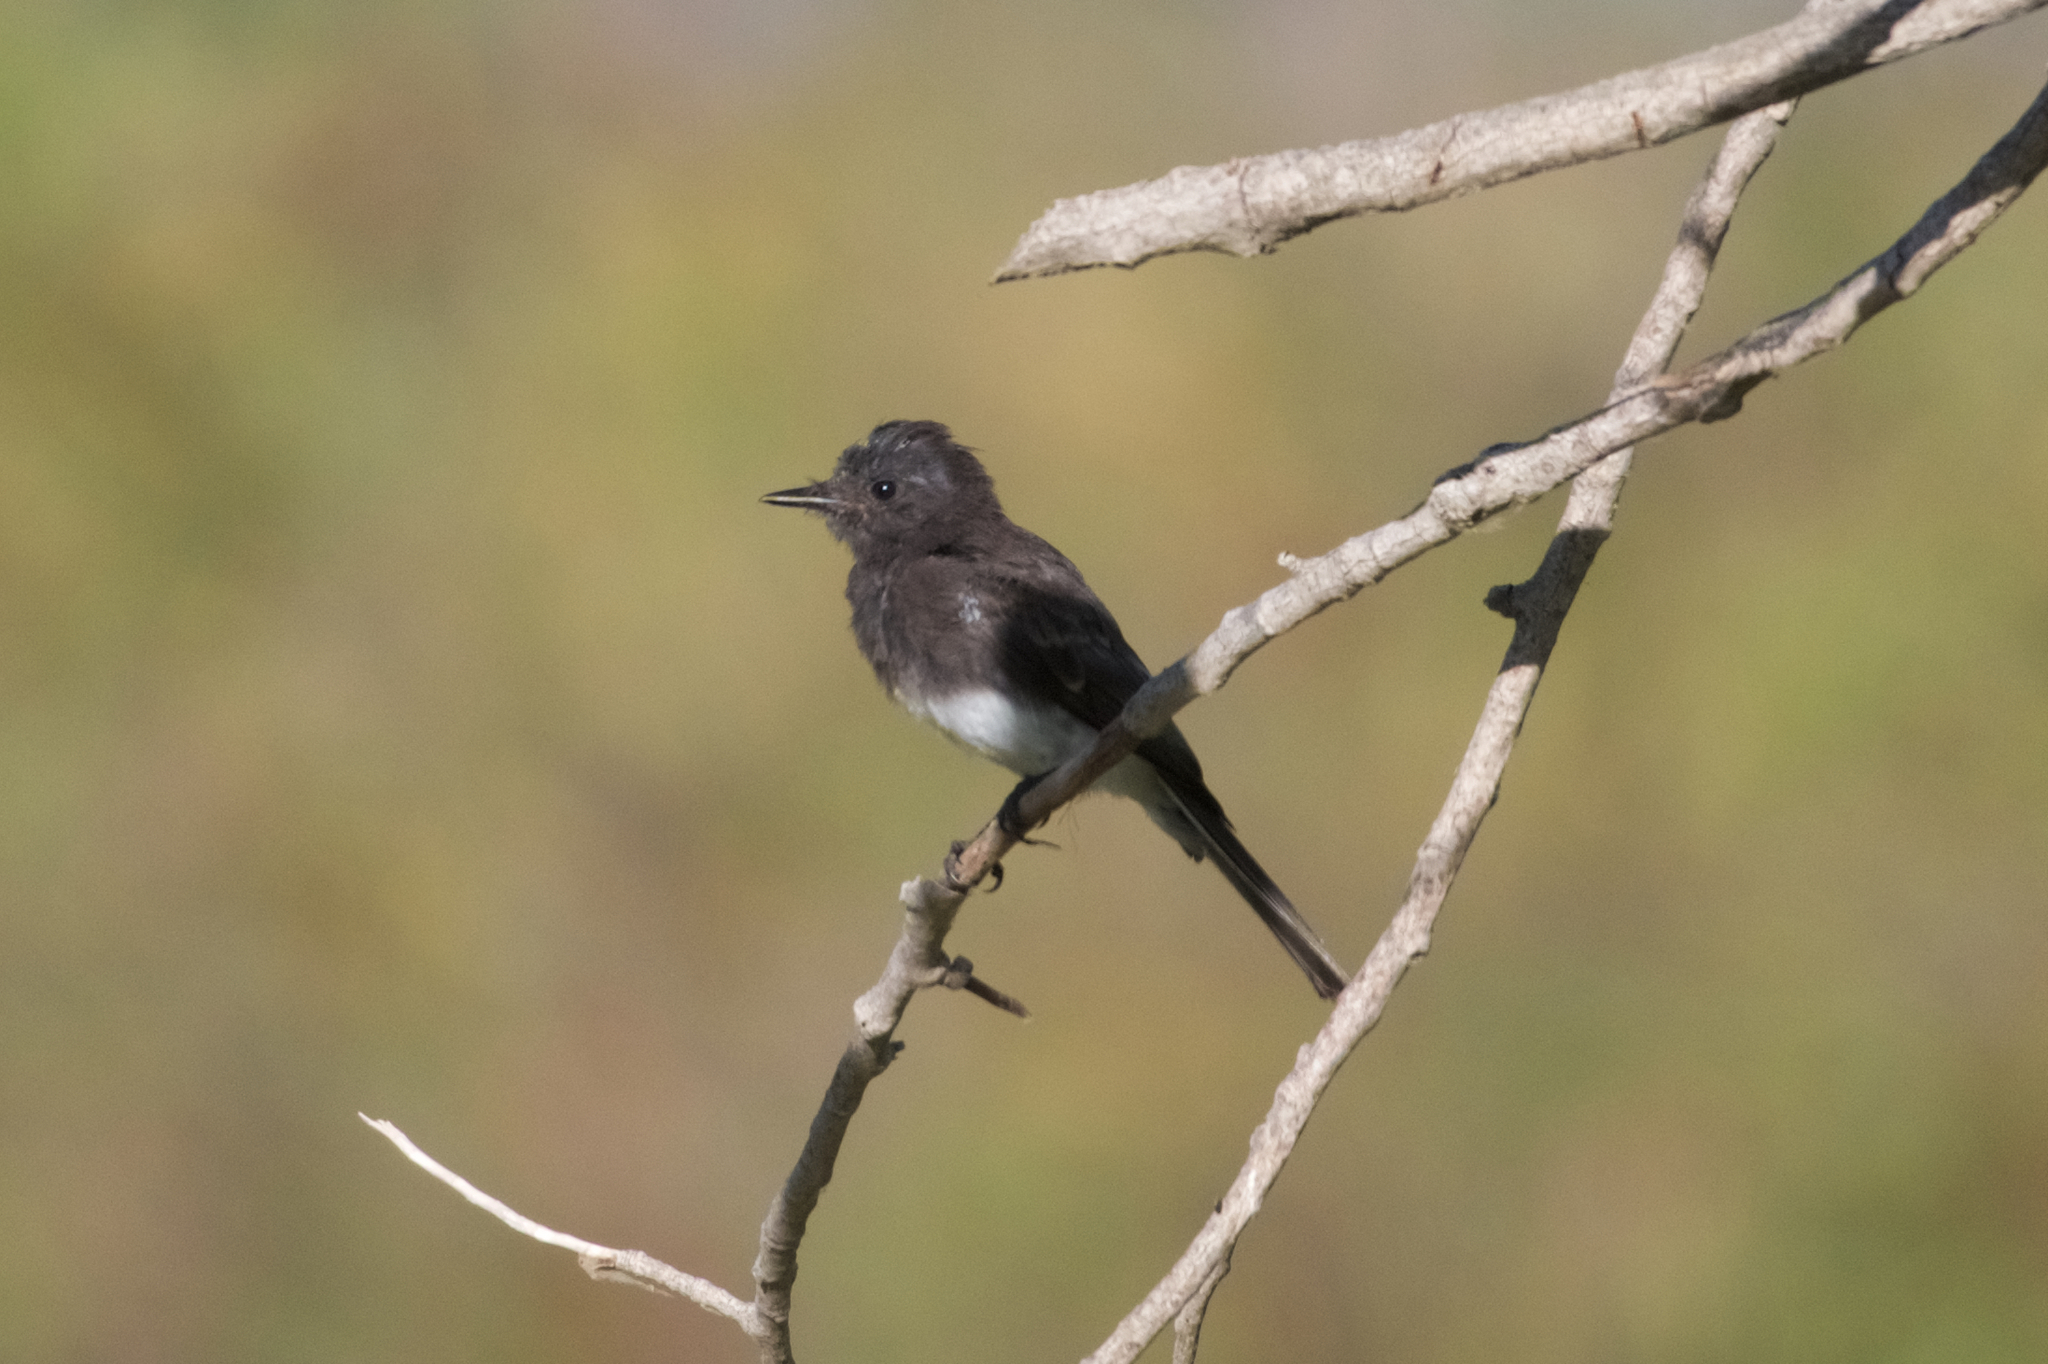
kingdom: Animalia
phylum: Chordata
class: Aves
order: Passeriformes
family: Tyrannidae
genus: Sayornis
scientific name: Sayornis nigricans
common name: Black phoebe
